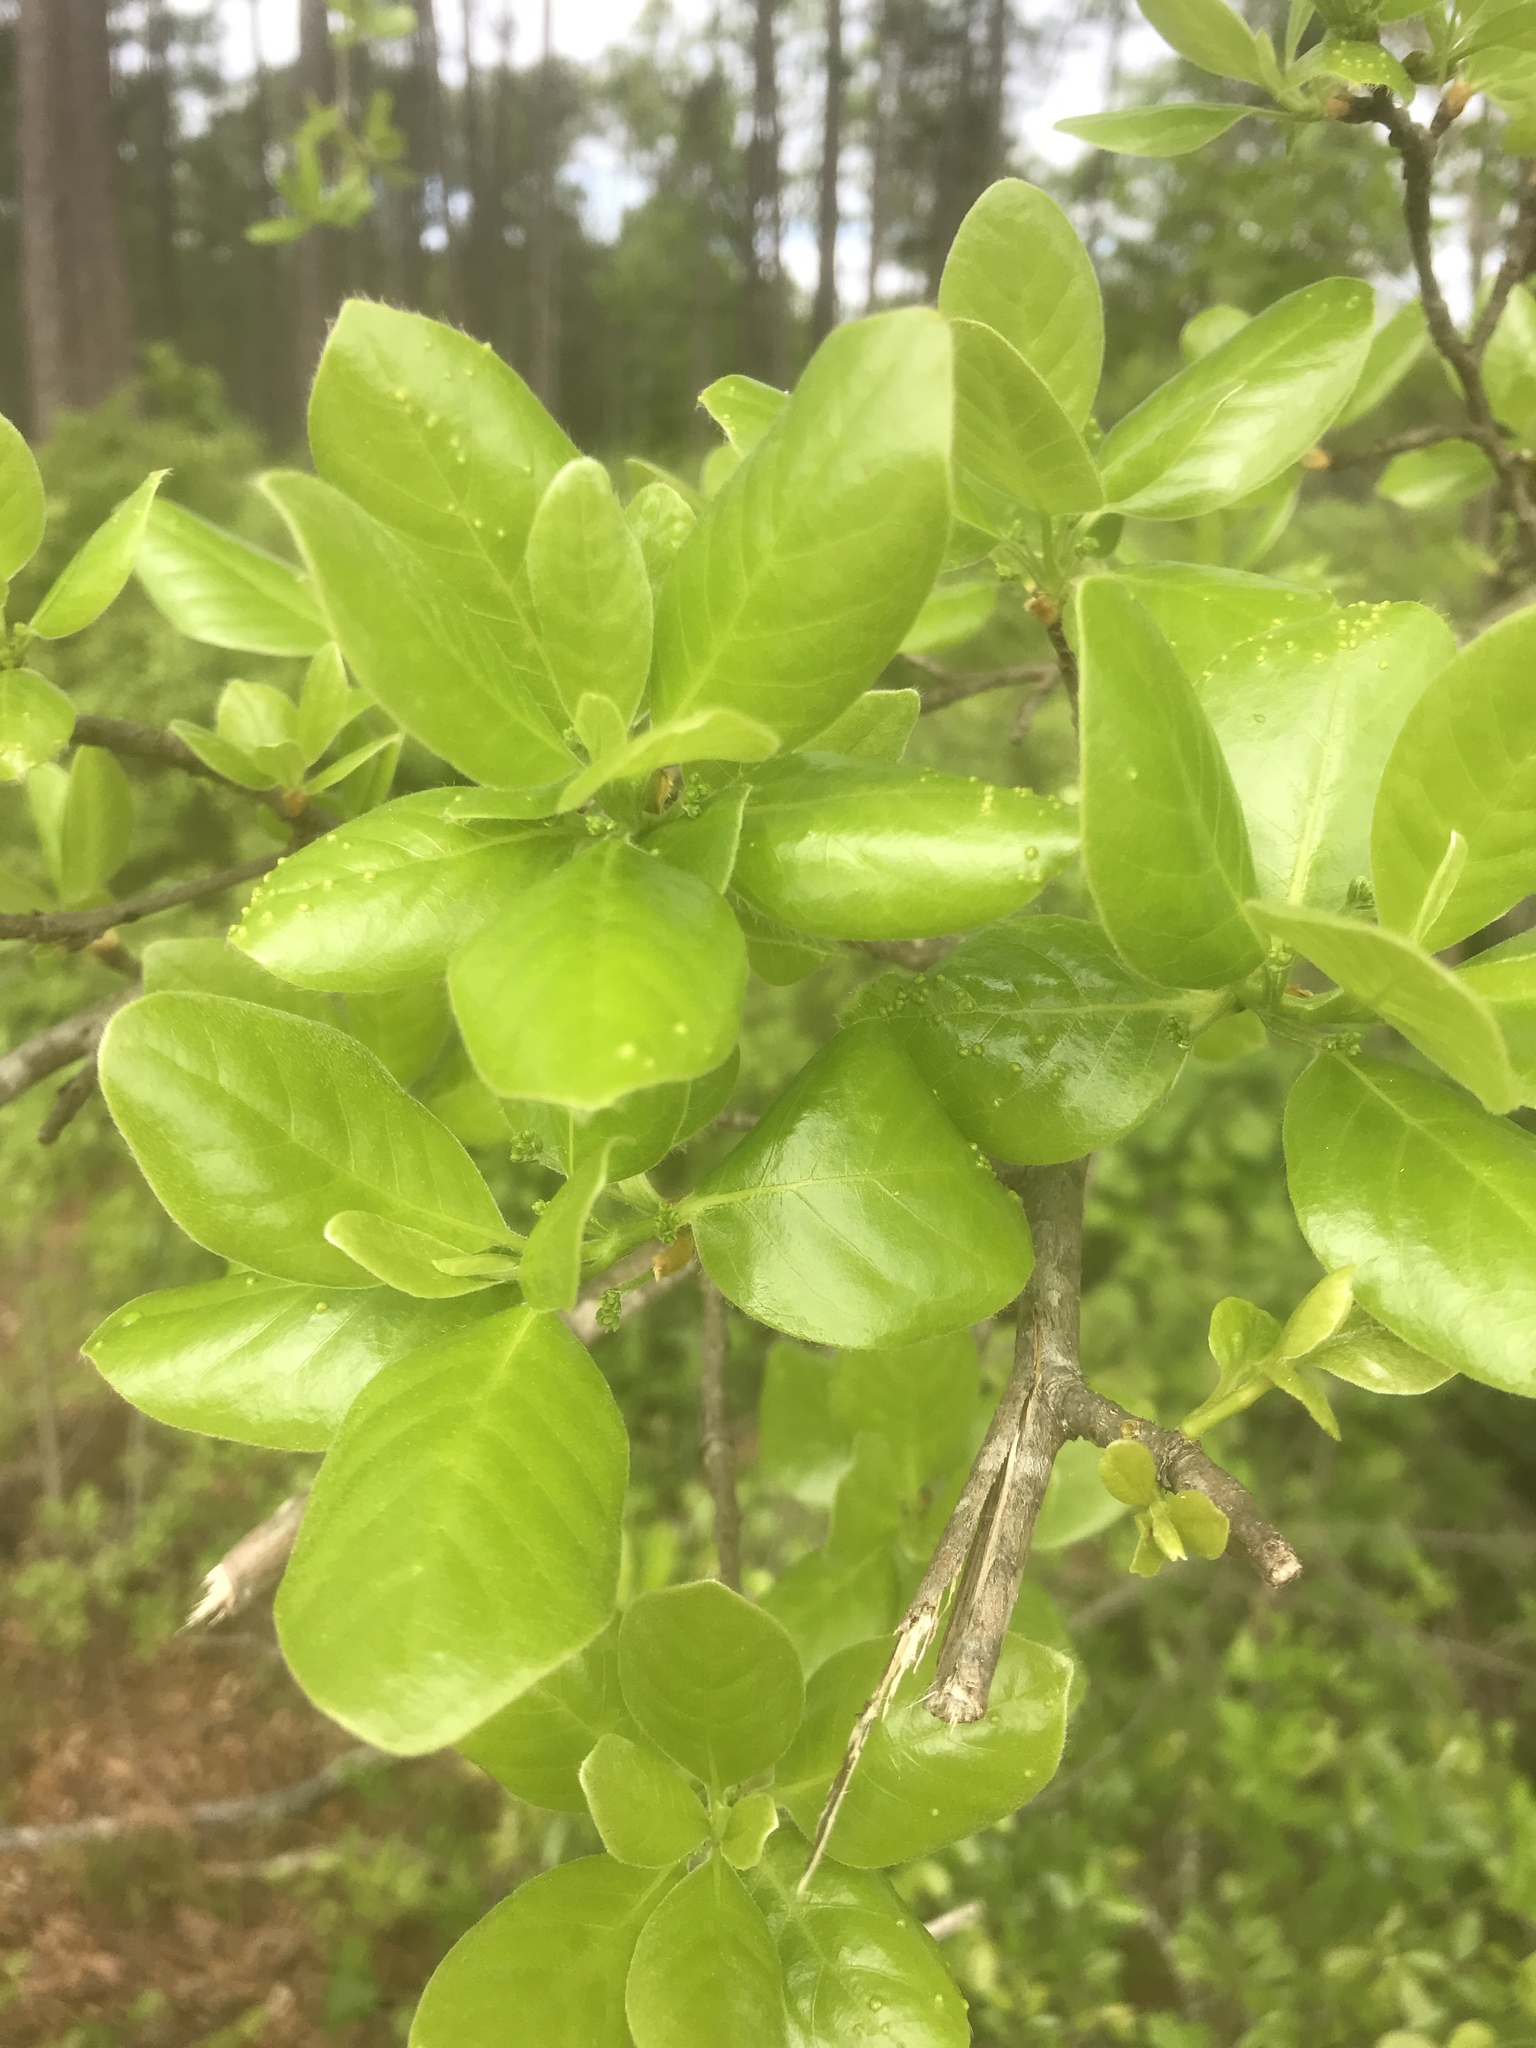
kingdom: Plantae
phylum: Tracheophyta
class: Magnoliopsida
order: Cornales
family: Nyssaceae
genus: Nyssa
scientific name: Nyssa sylvatica
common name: Black tupelo
